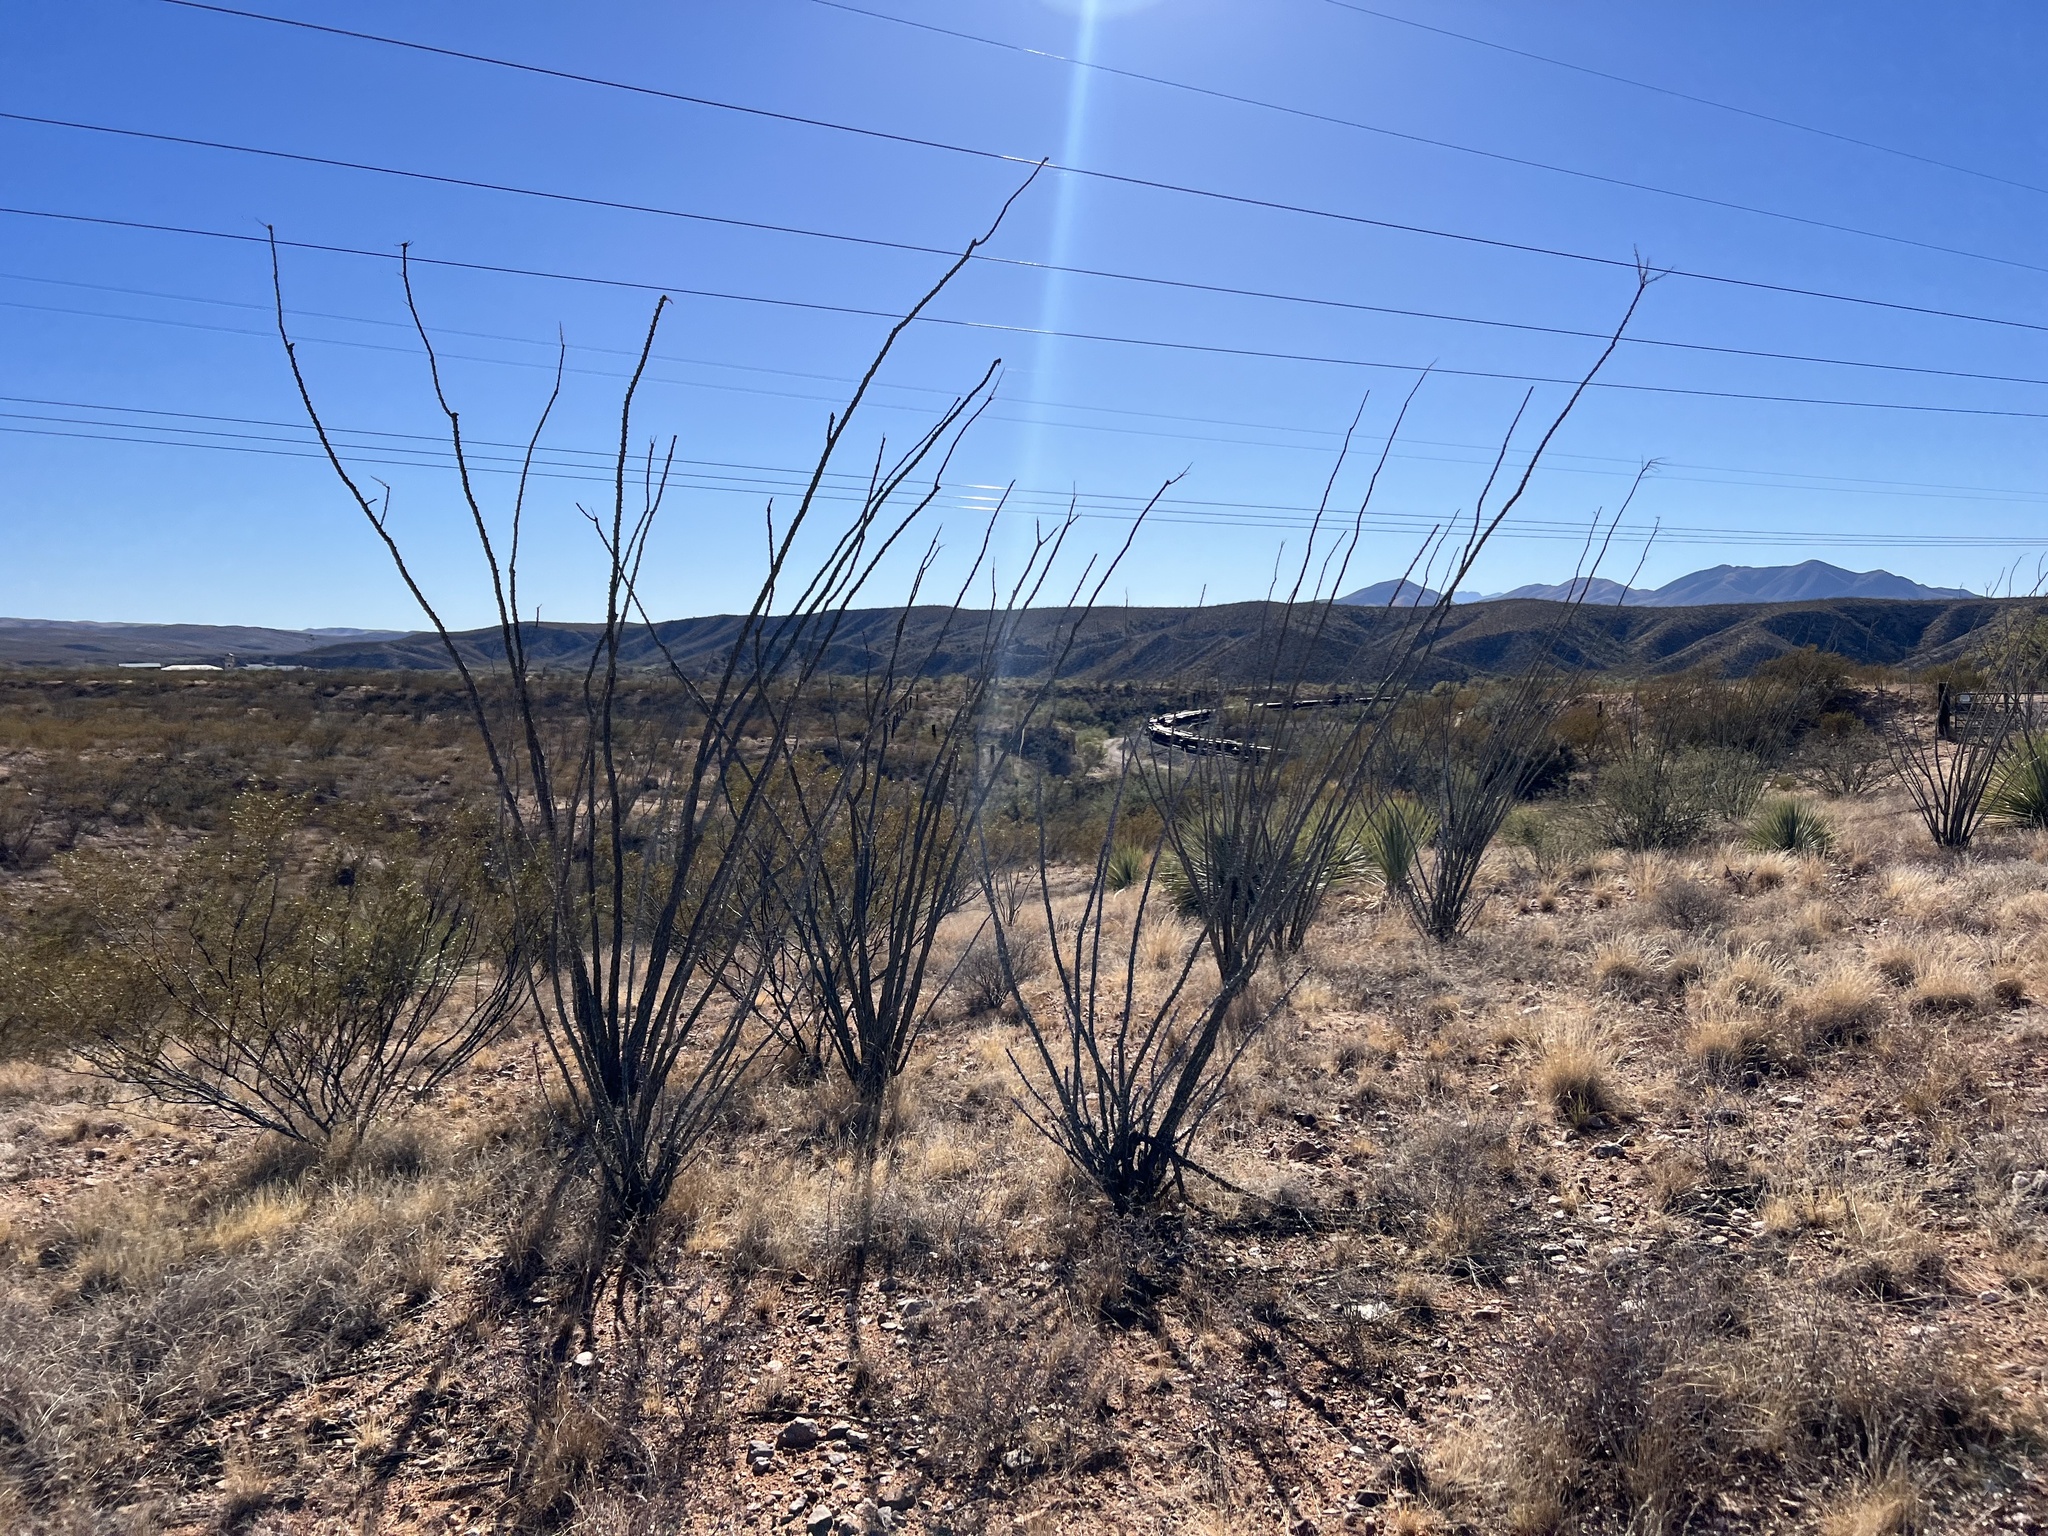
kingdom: Plantae
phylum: Tracheophyta
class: Magnoliopsida
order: Ericales
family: Fouquieriaceae
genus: Fouquieria
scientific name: Fouquieria splendens
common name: Vine-cactus
